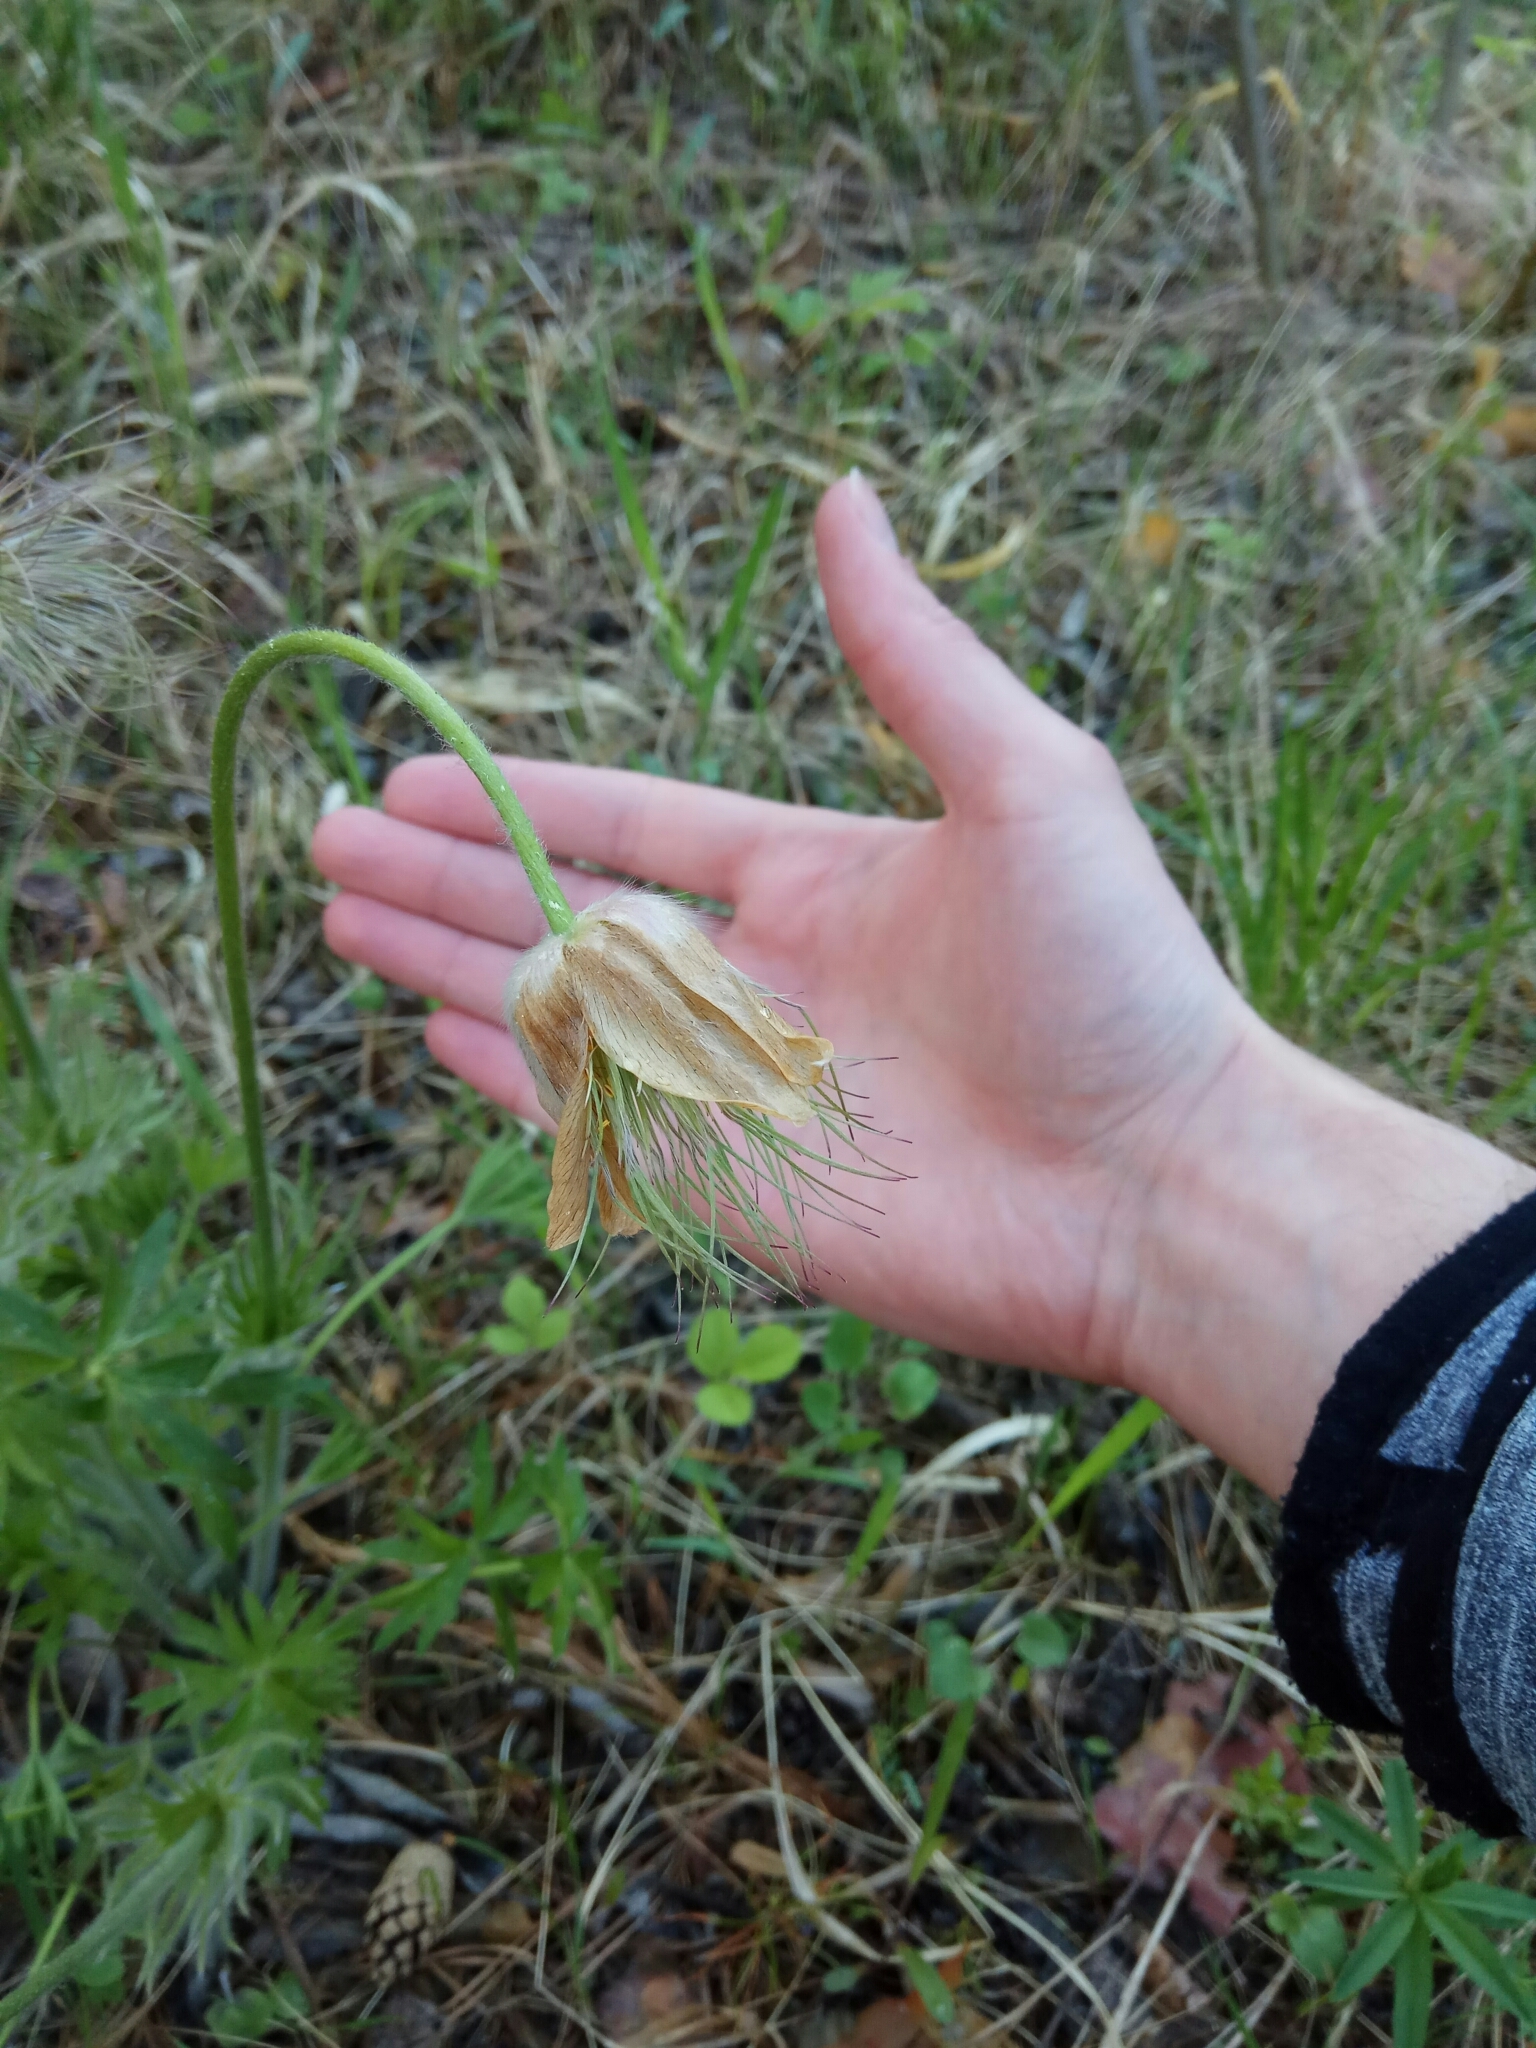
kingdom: Plantae
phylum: Tracheophyta
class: Magnoliopsida
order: Ranunculales
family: Ranunculaceae
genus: Pulsatilla
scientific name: Pulsatilla patens
